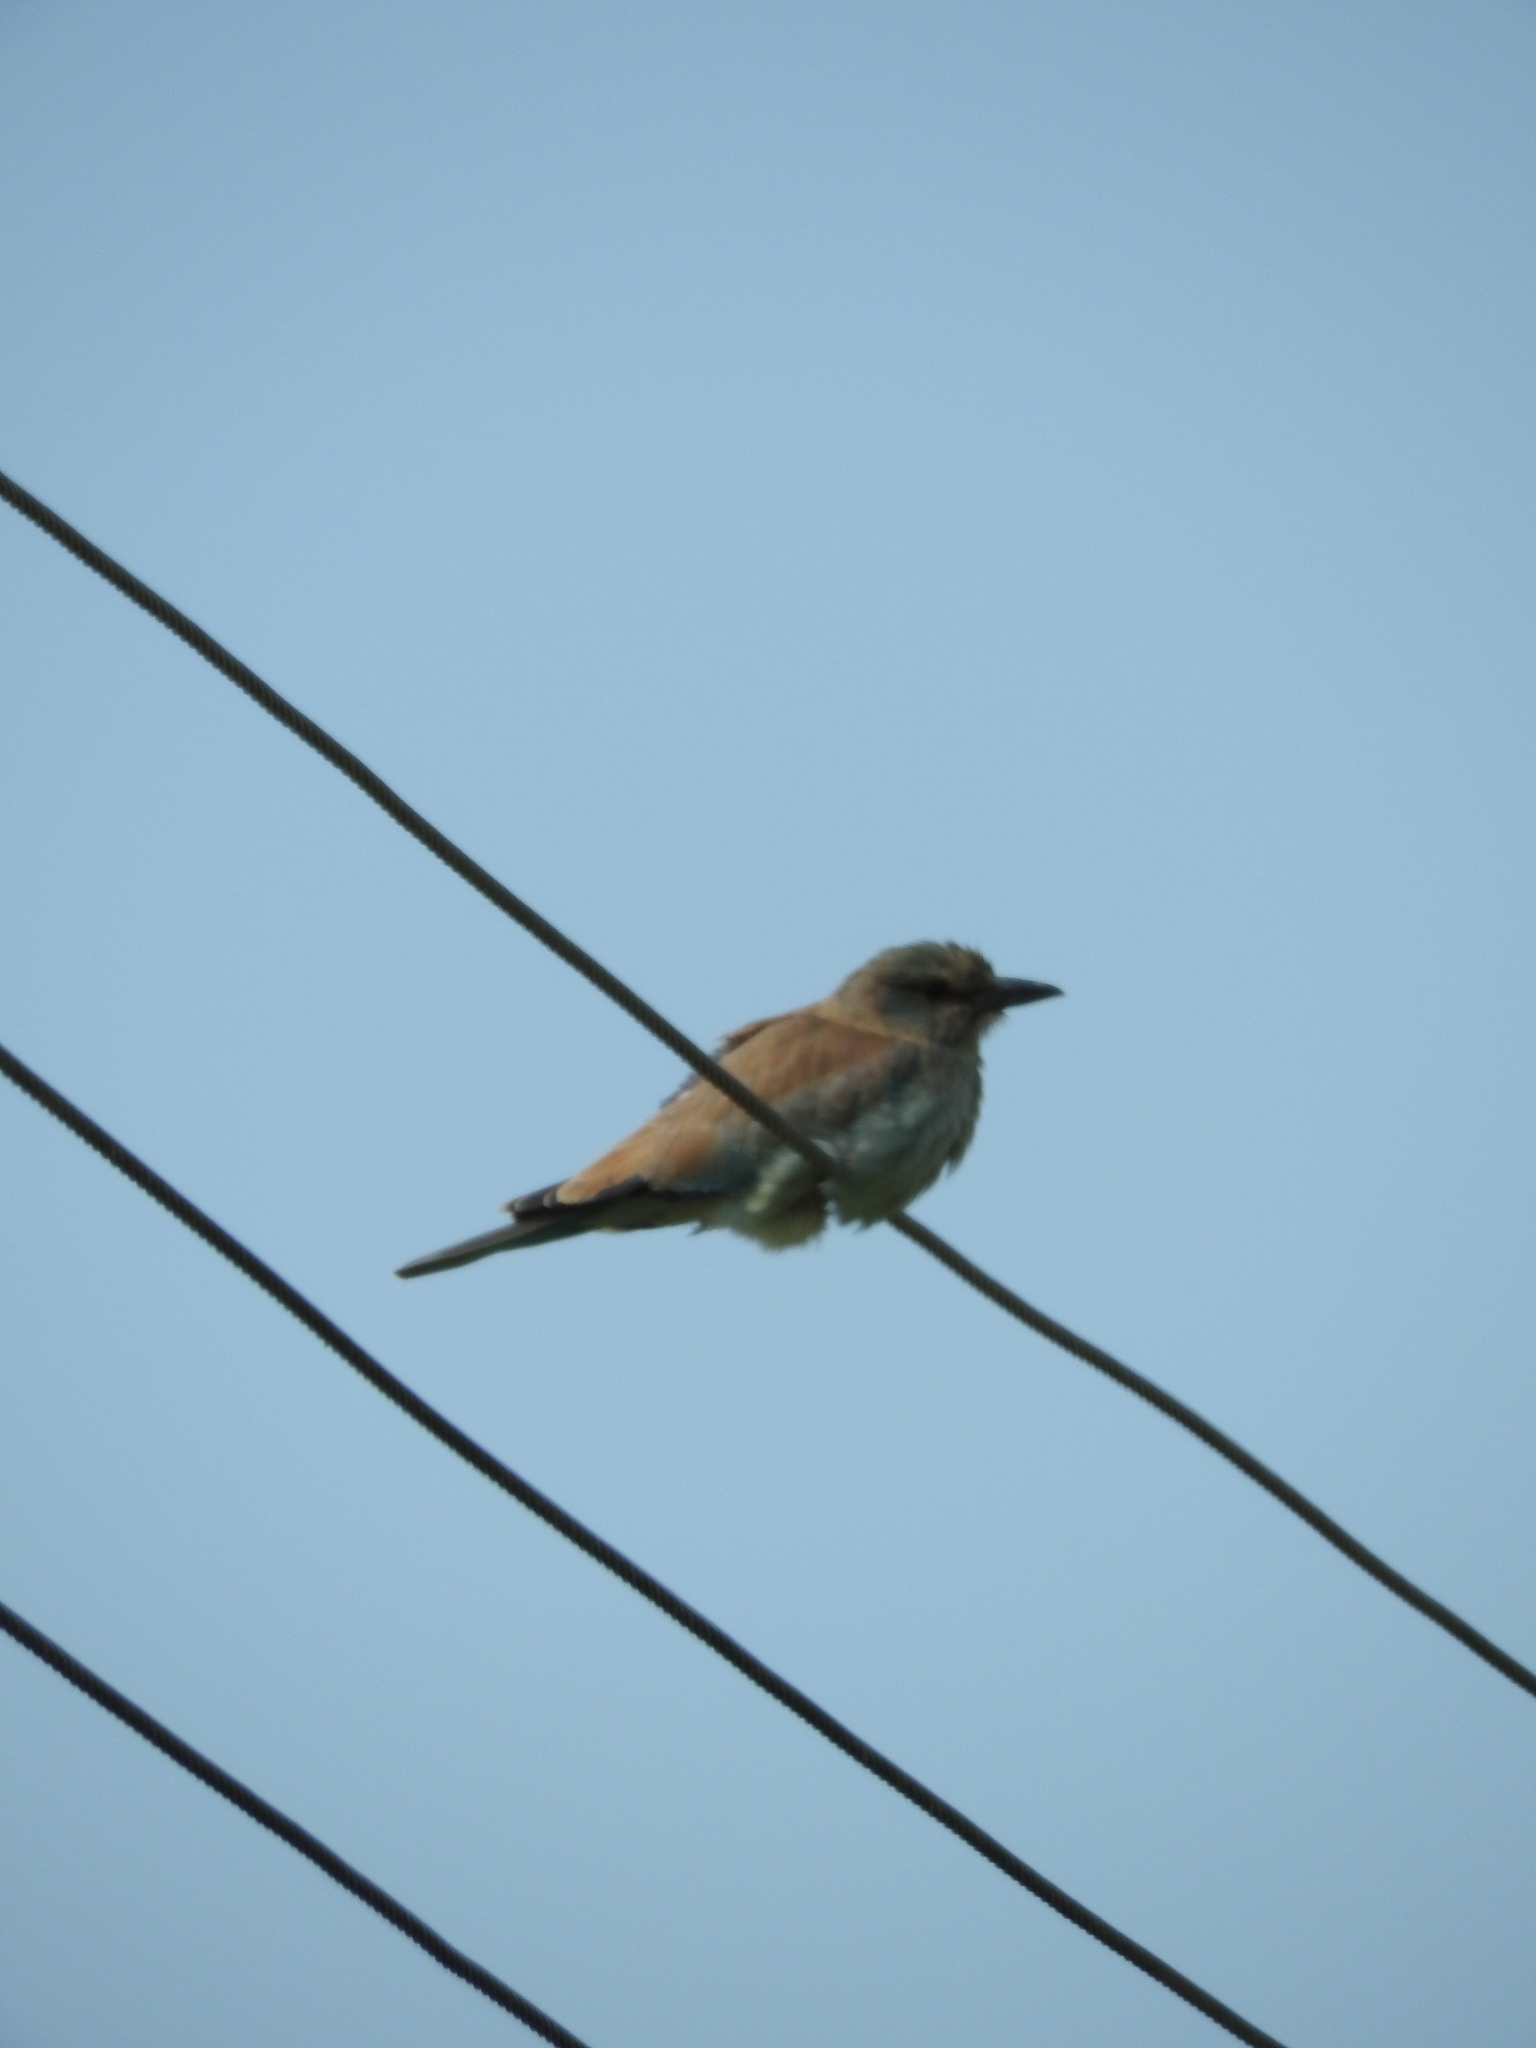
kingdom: Animalia
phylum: Chordata
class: Aves
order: Coraciiformes
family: Coraciidae
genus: Coracias
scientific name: Coracias garrulus
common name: European roller
